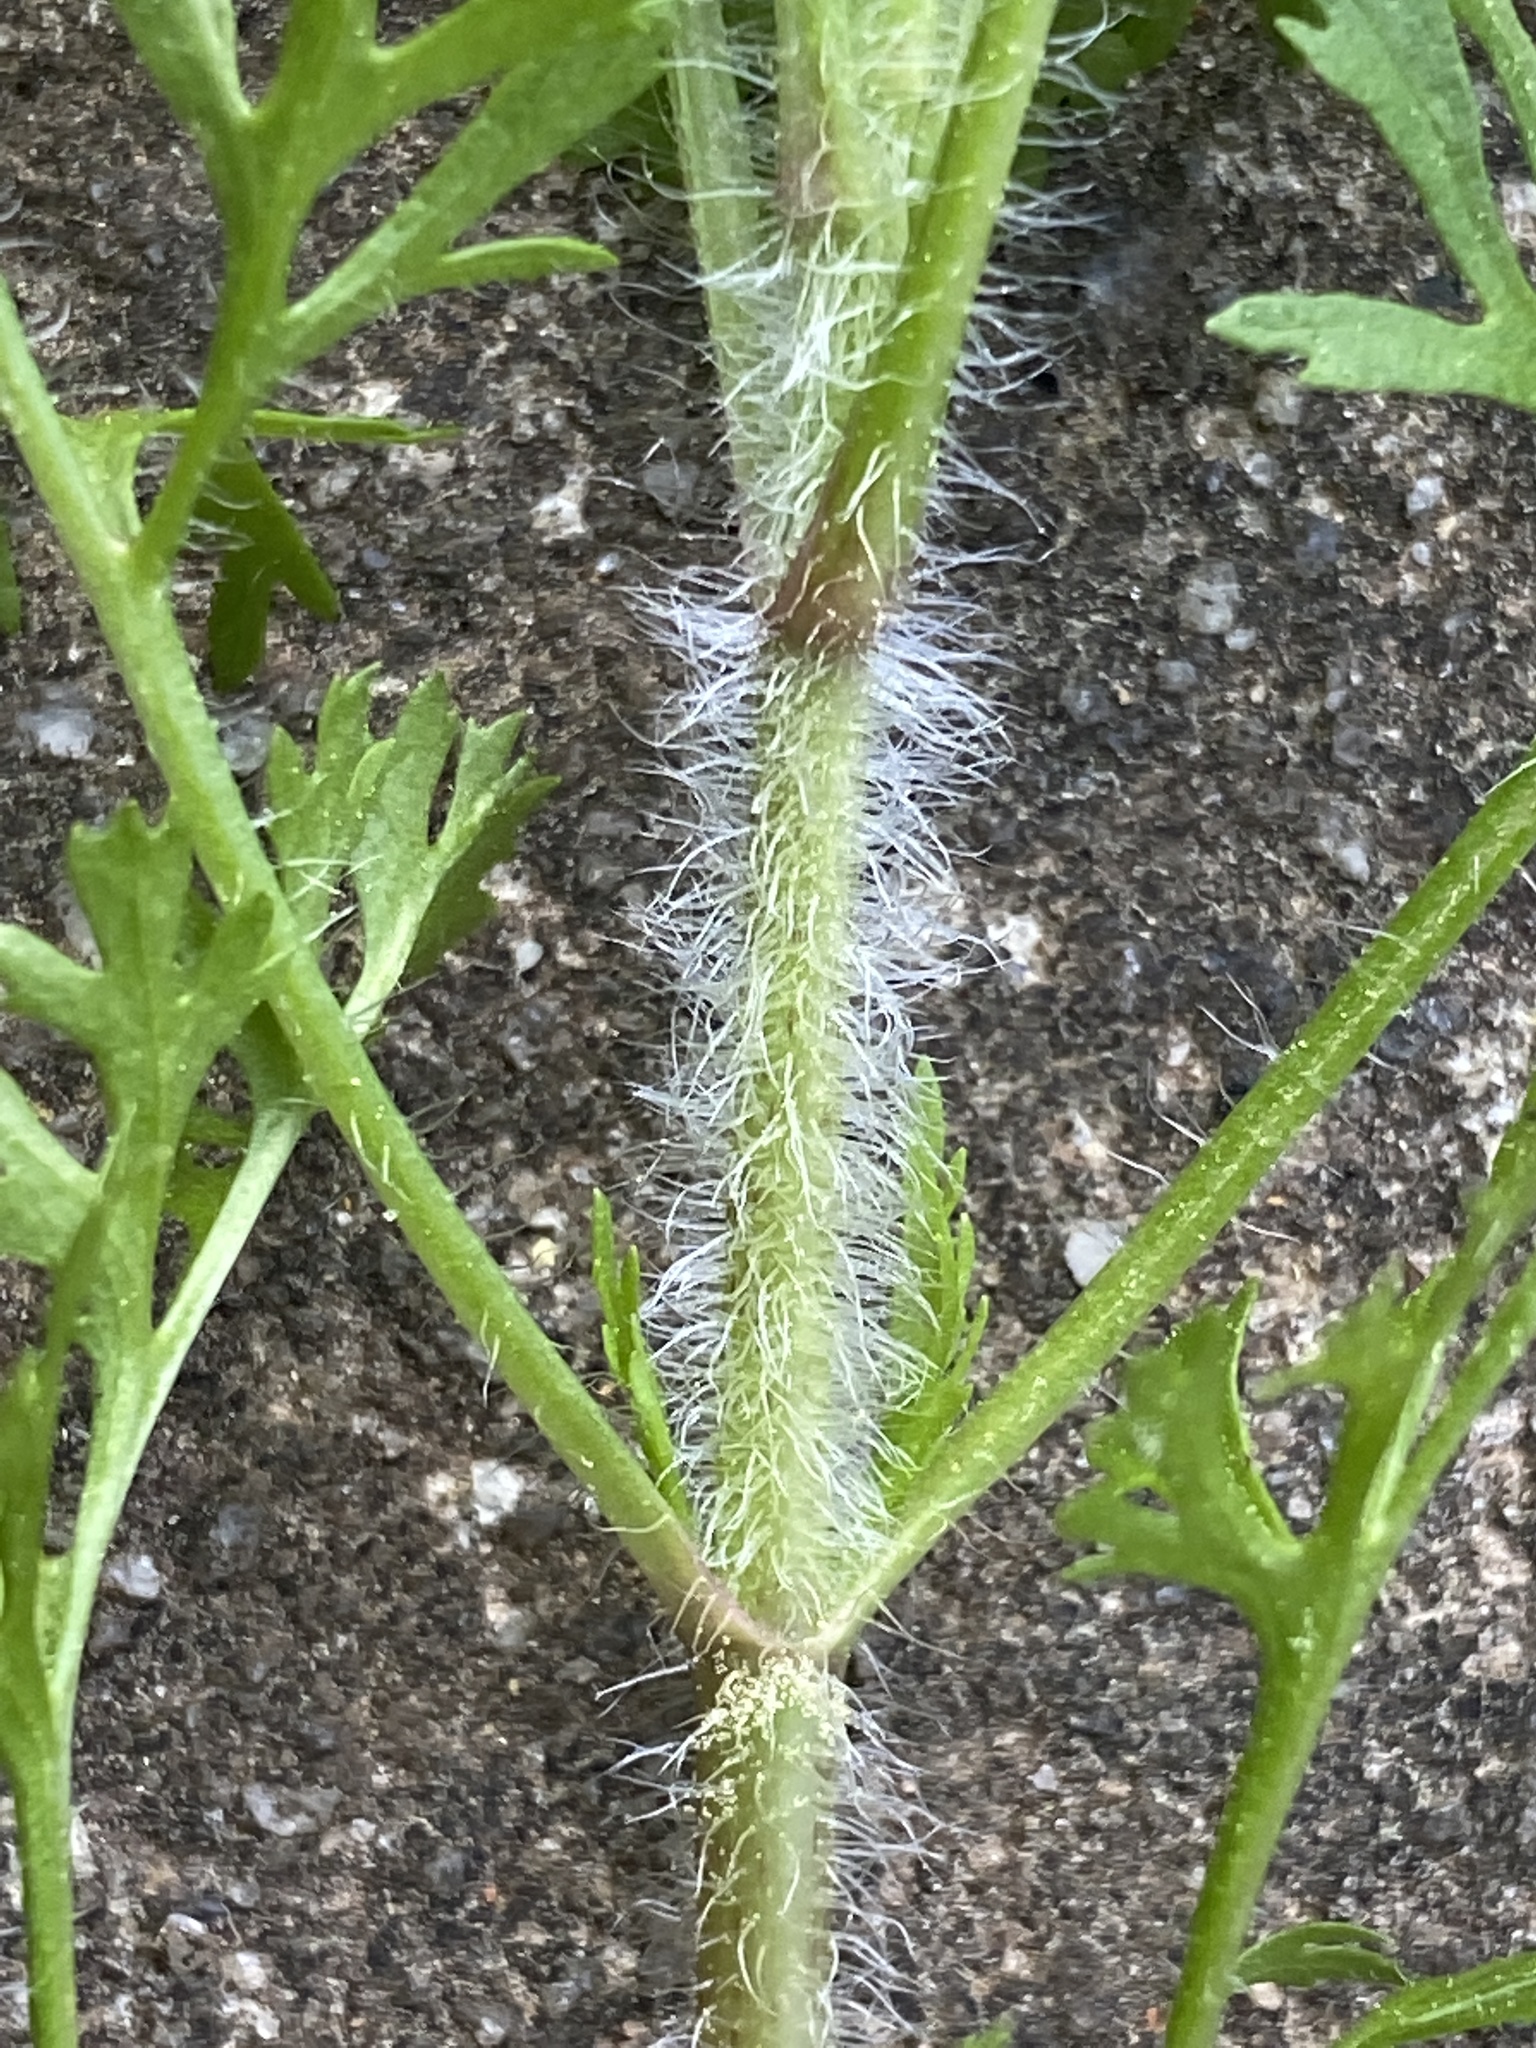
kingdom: Plantae
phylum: Tracheophyta
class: Magnoliopsida
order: Apiales
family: Apiaceae
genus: Daucus
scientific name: Daucus carota
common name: Wild carrot
